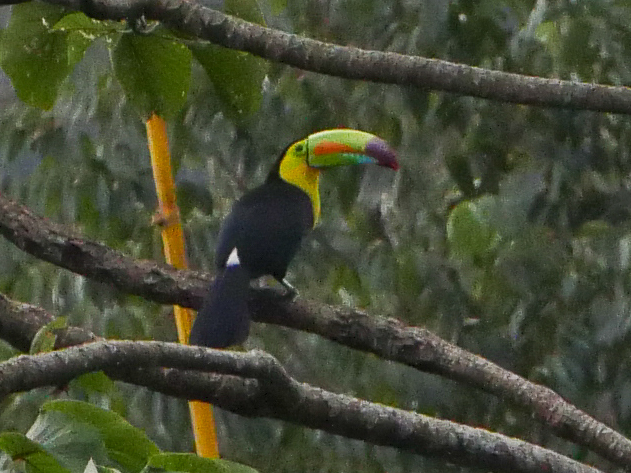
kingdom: Animalia
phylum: Chordata
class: Aves
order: Piciformes
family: Ramphastidae
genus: Ramphastos
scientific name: Ramphastos sulfuratus
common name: Keel-billed toucan
